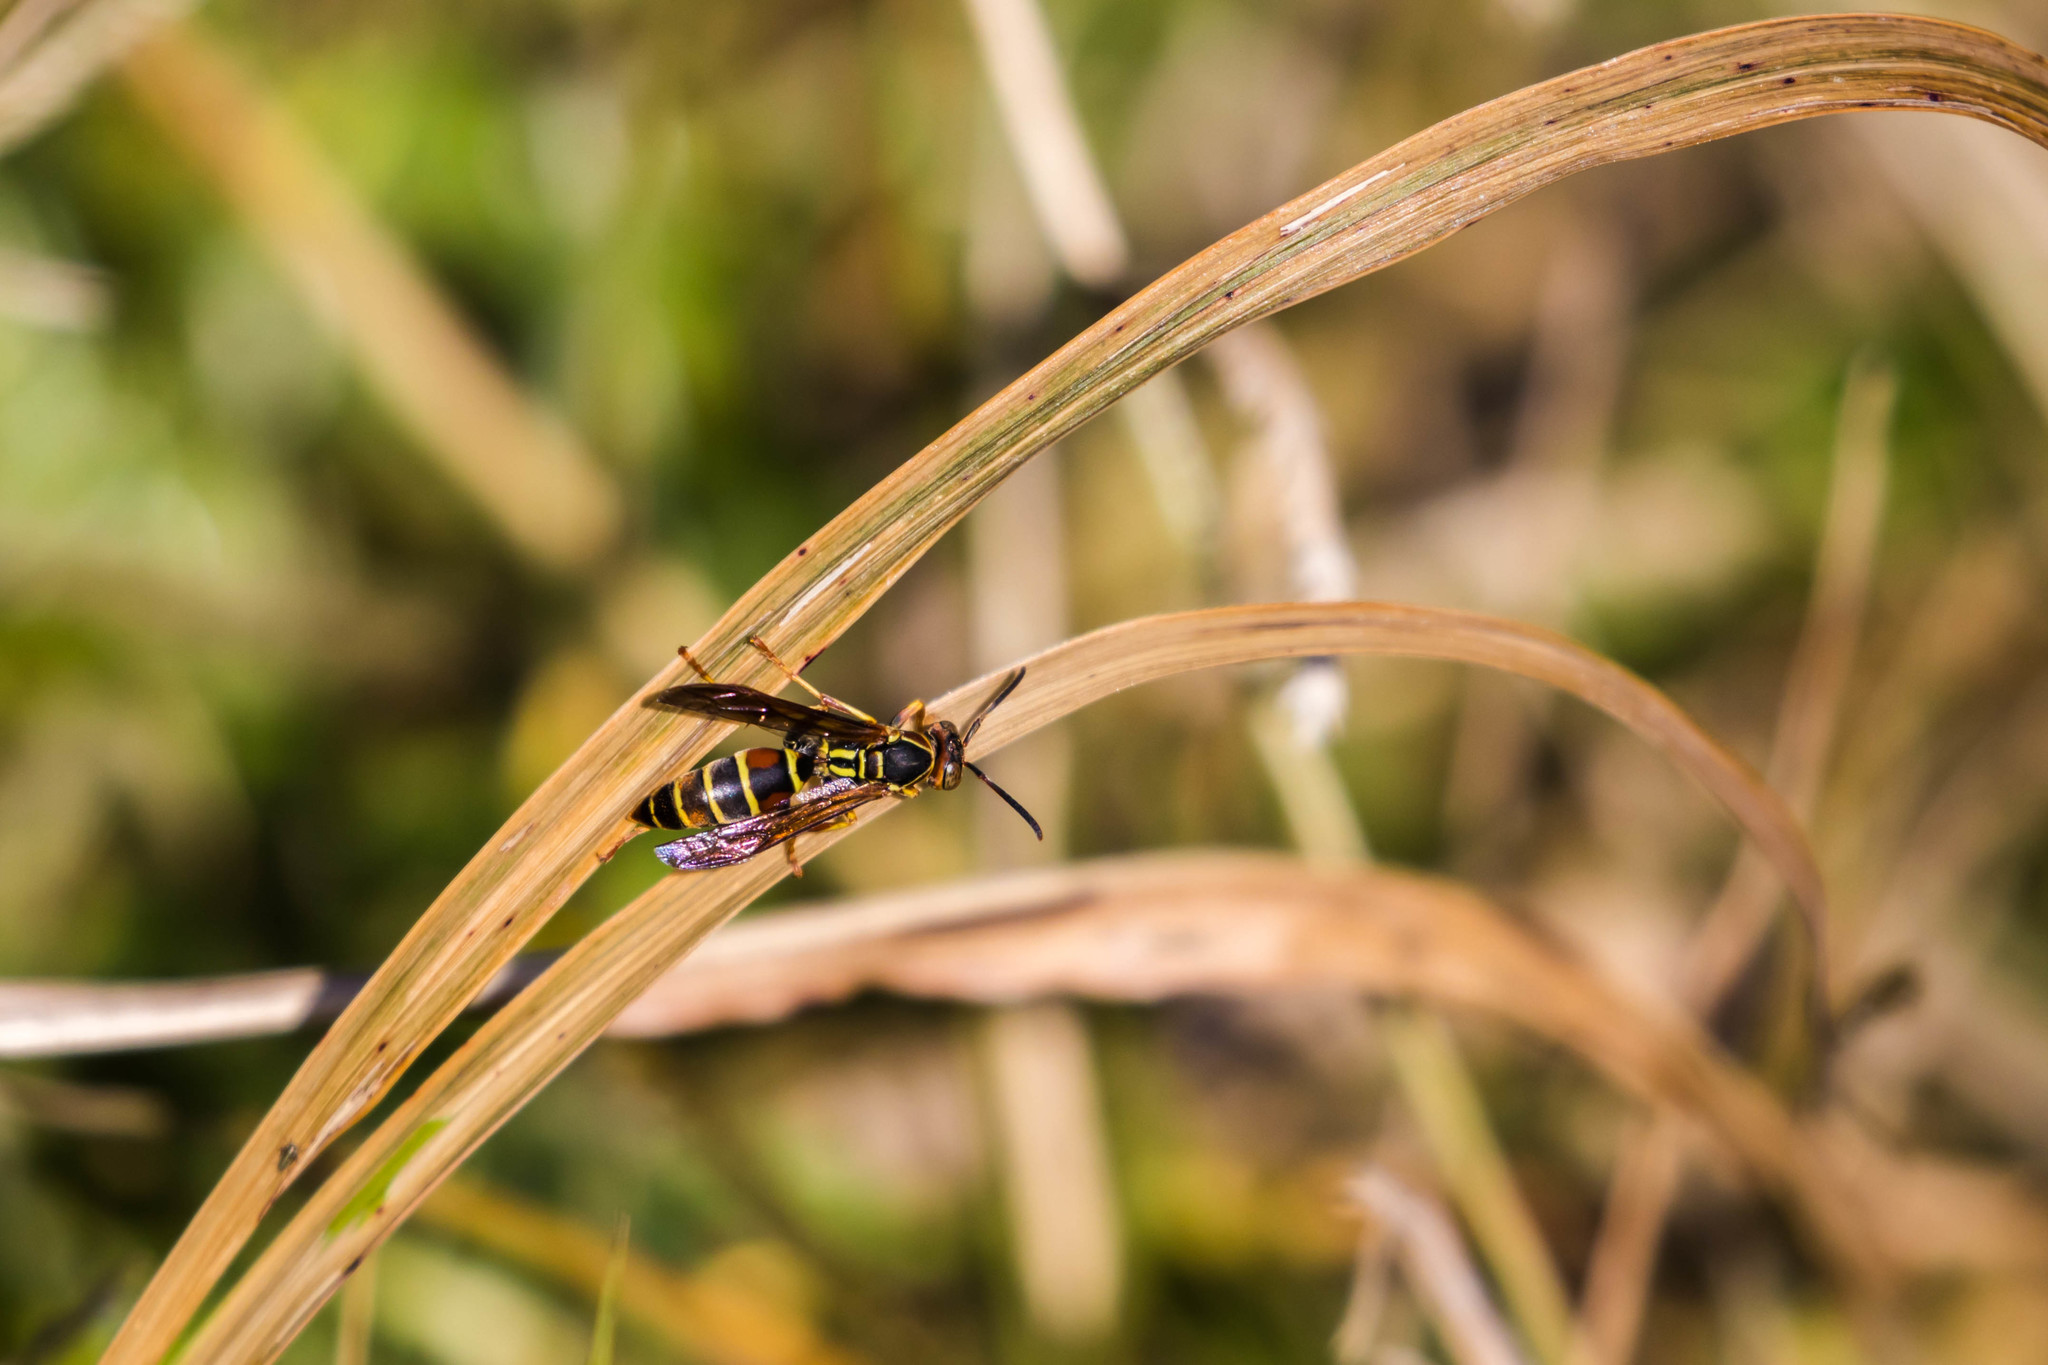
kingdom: Animalia
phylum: Arthropoda
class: Insecta
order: Hymenoptera
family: Eumenidae
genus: Polistes
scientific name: Polistes fuscatus
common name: Dark paper wasp
